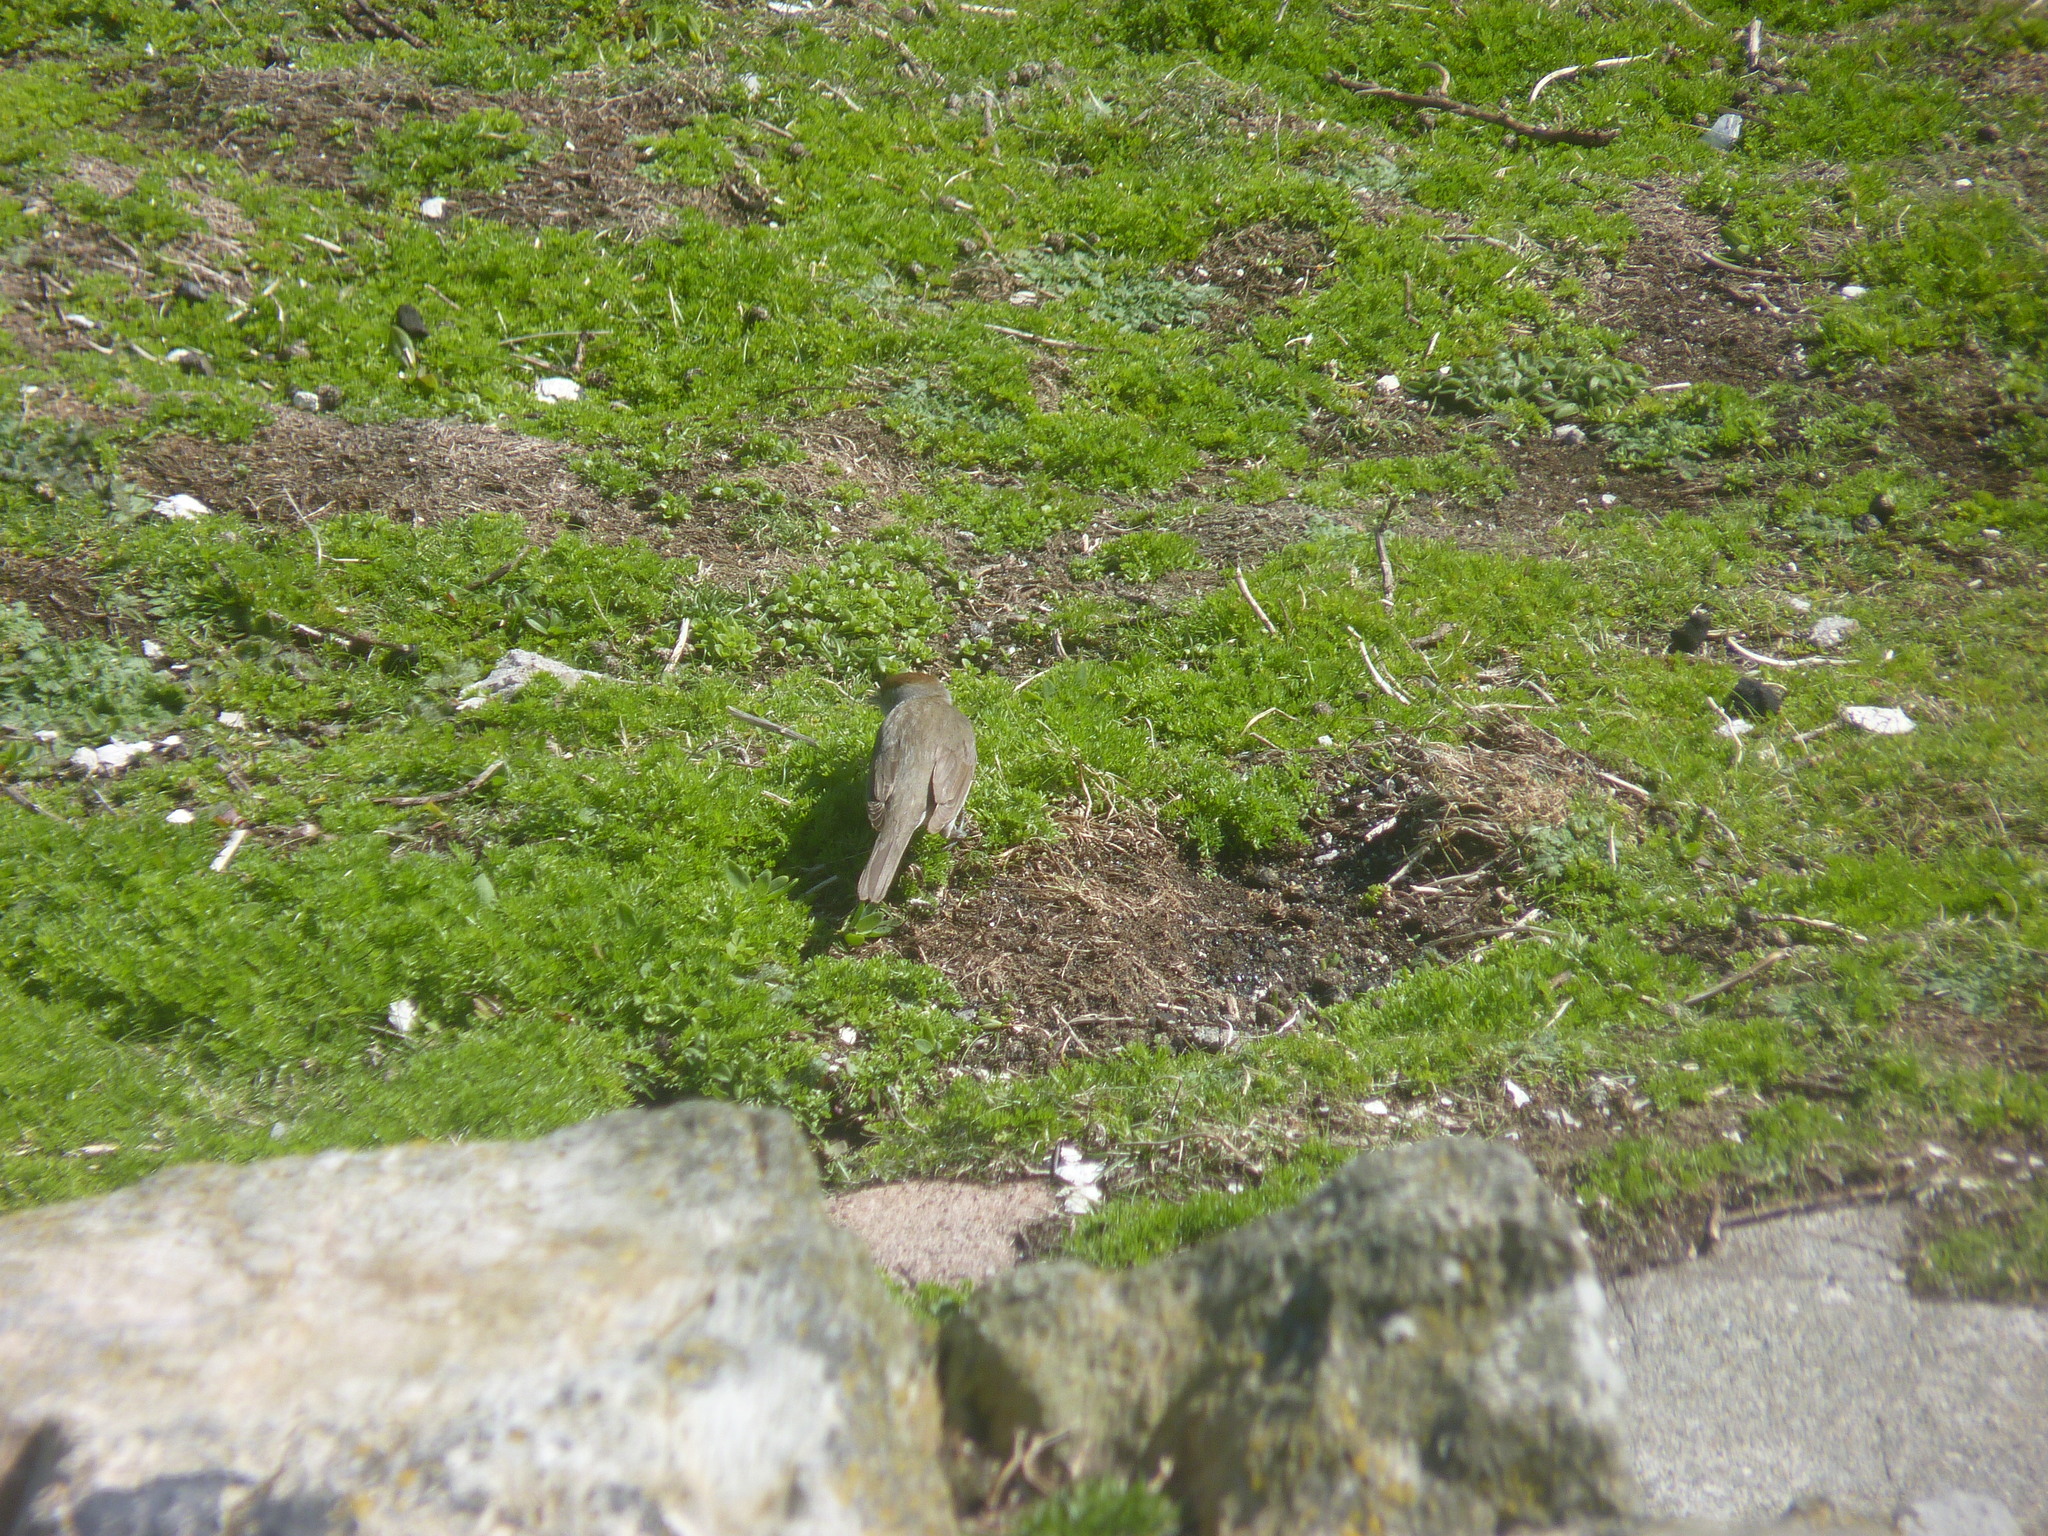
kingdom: Animalia
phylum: Chordata
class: Aves
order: Passeriformes
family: Sylviidae
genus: Sylvia
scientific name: Sylvia atricapilla
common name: Eurasian blackcap
